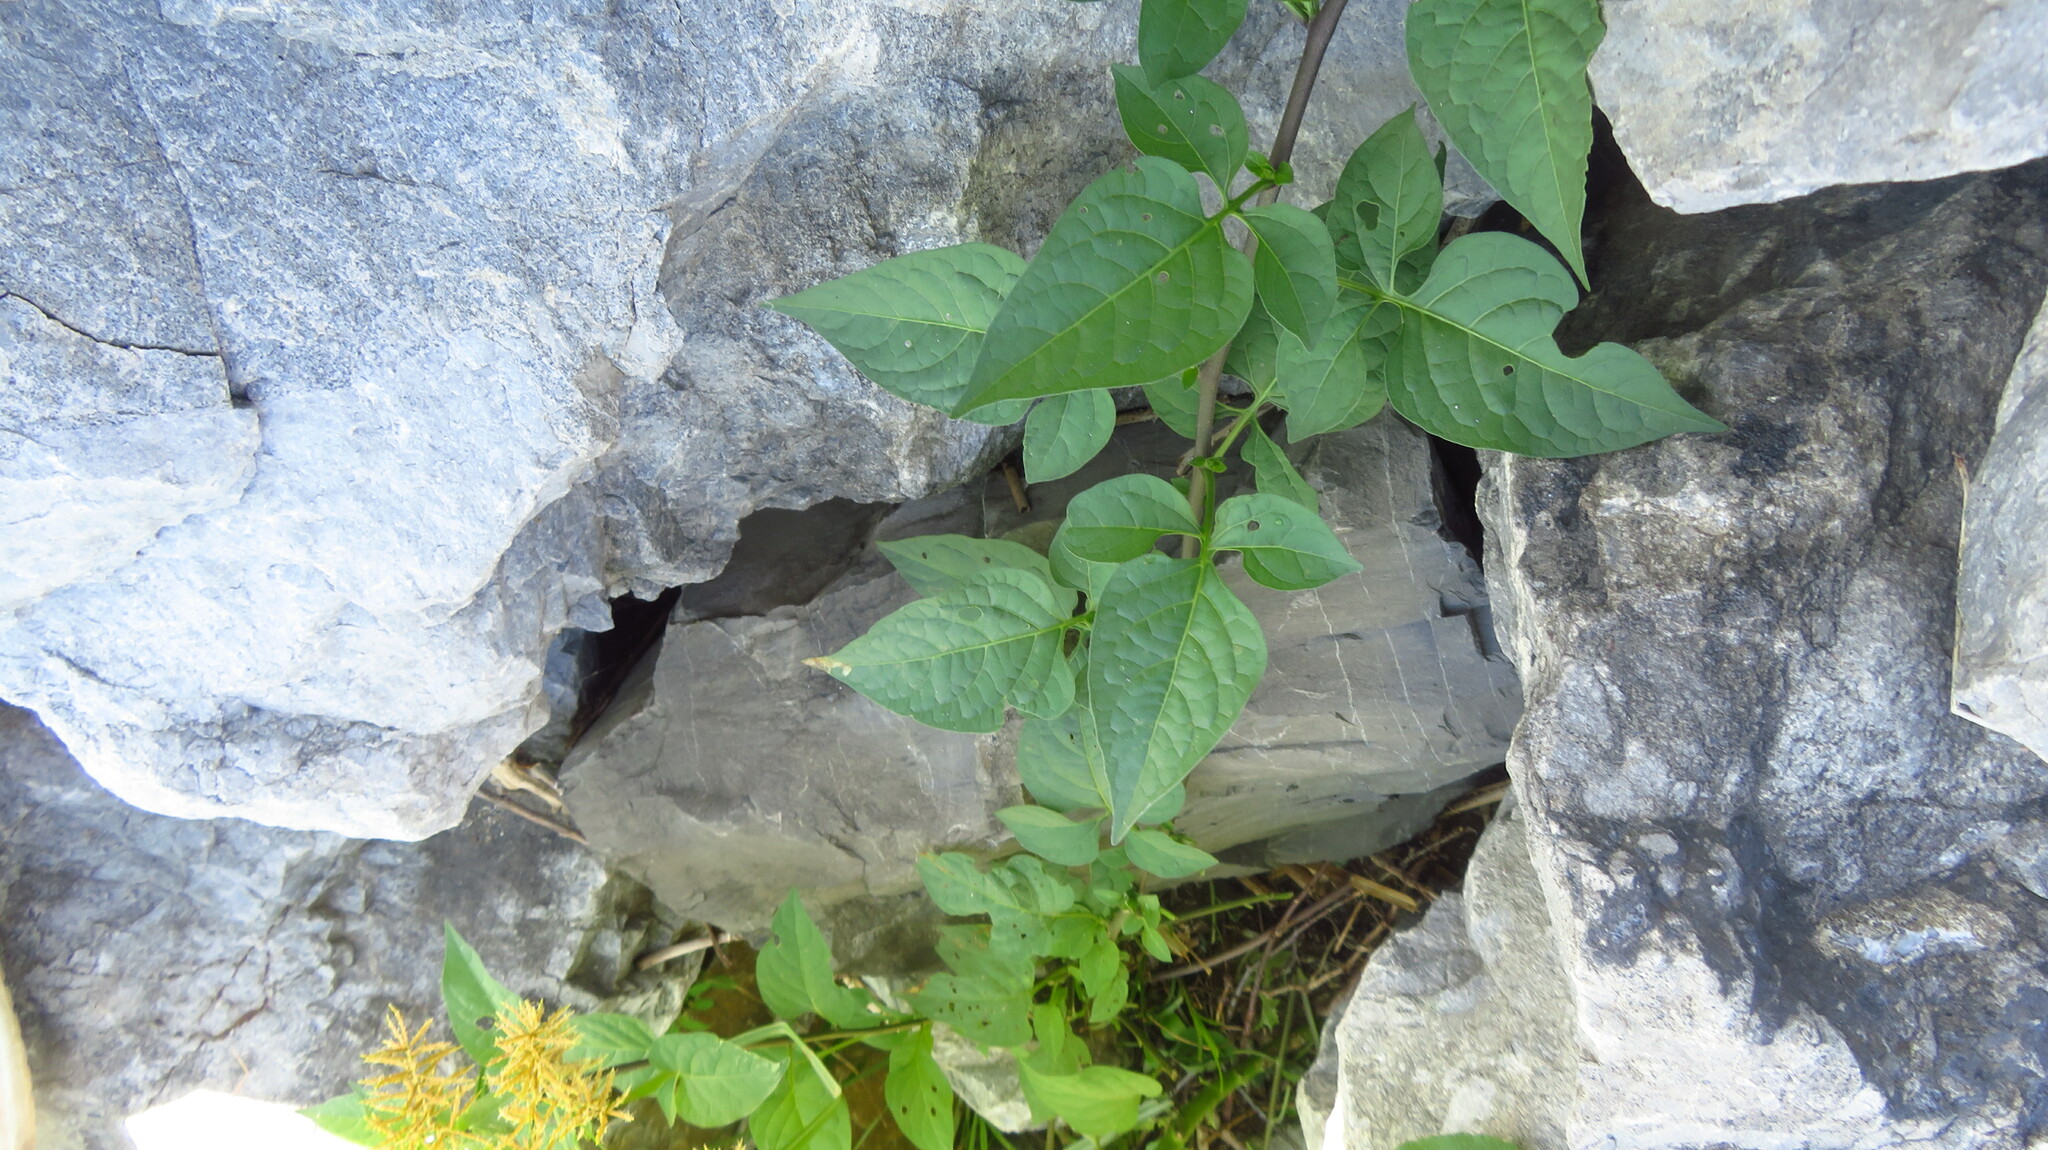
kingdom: Plantae
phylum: Tracheophyta
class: Magnoliopsida
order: Solanales
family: Solanaceae
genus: Solanum
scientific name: Solanum dulcamara
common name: Climbing nightshade
